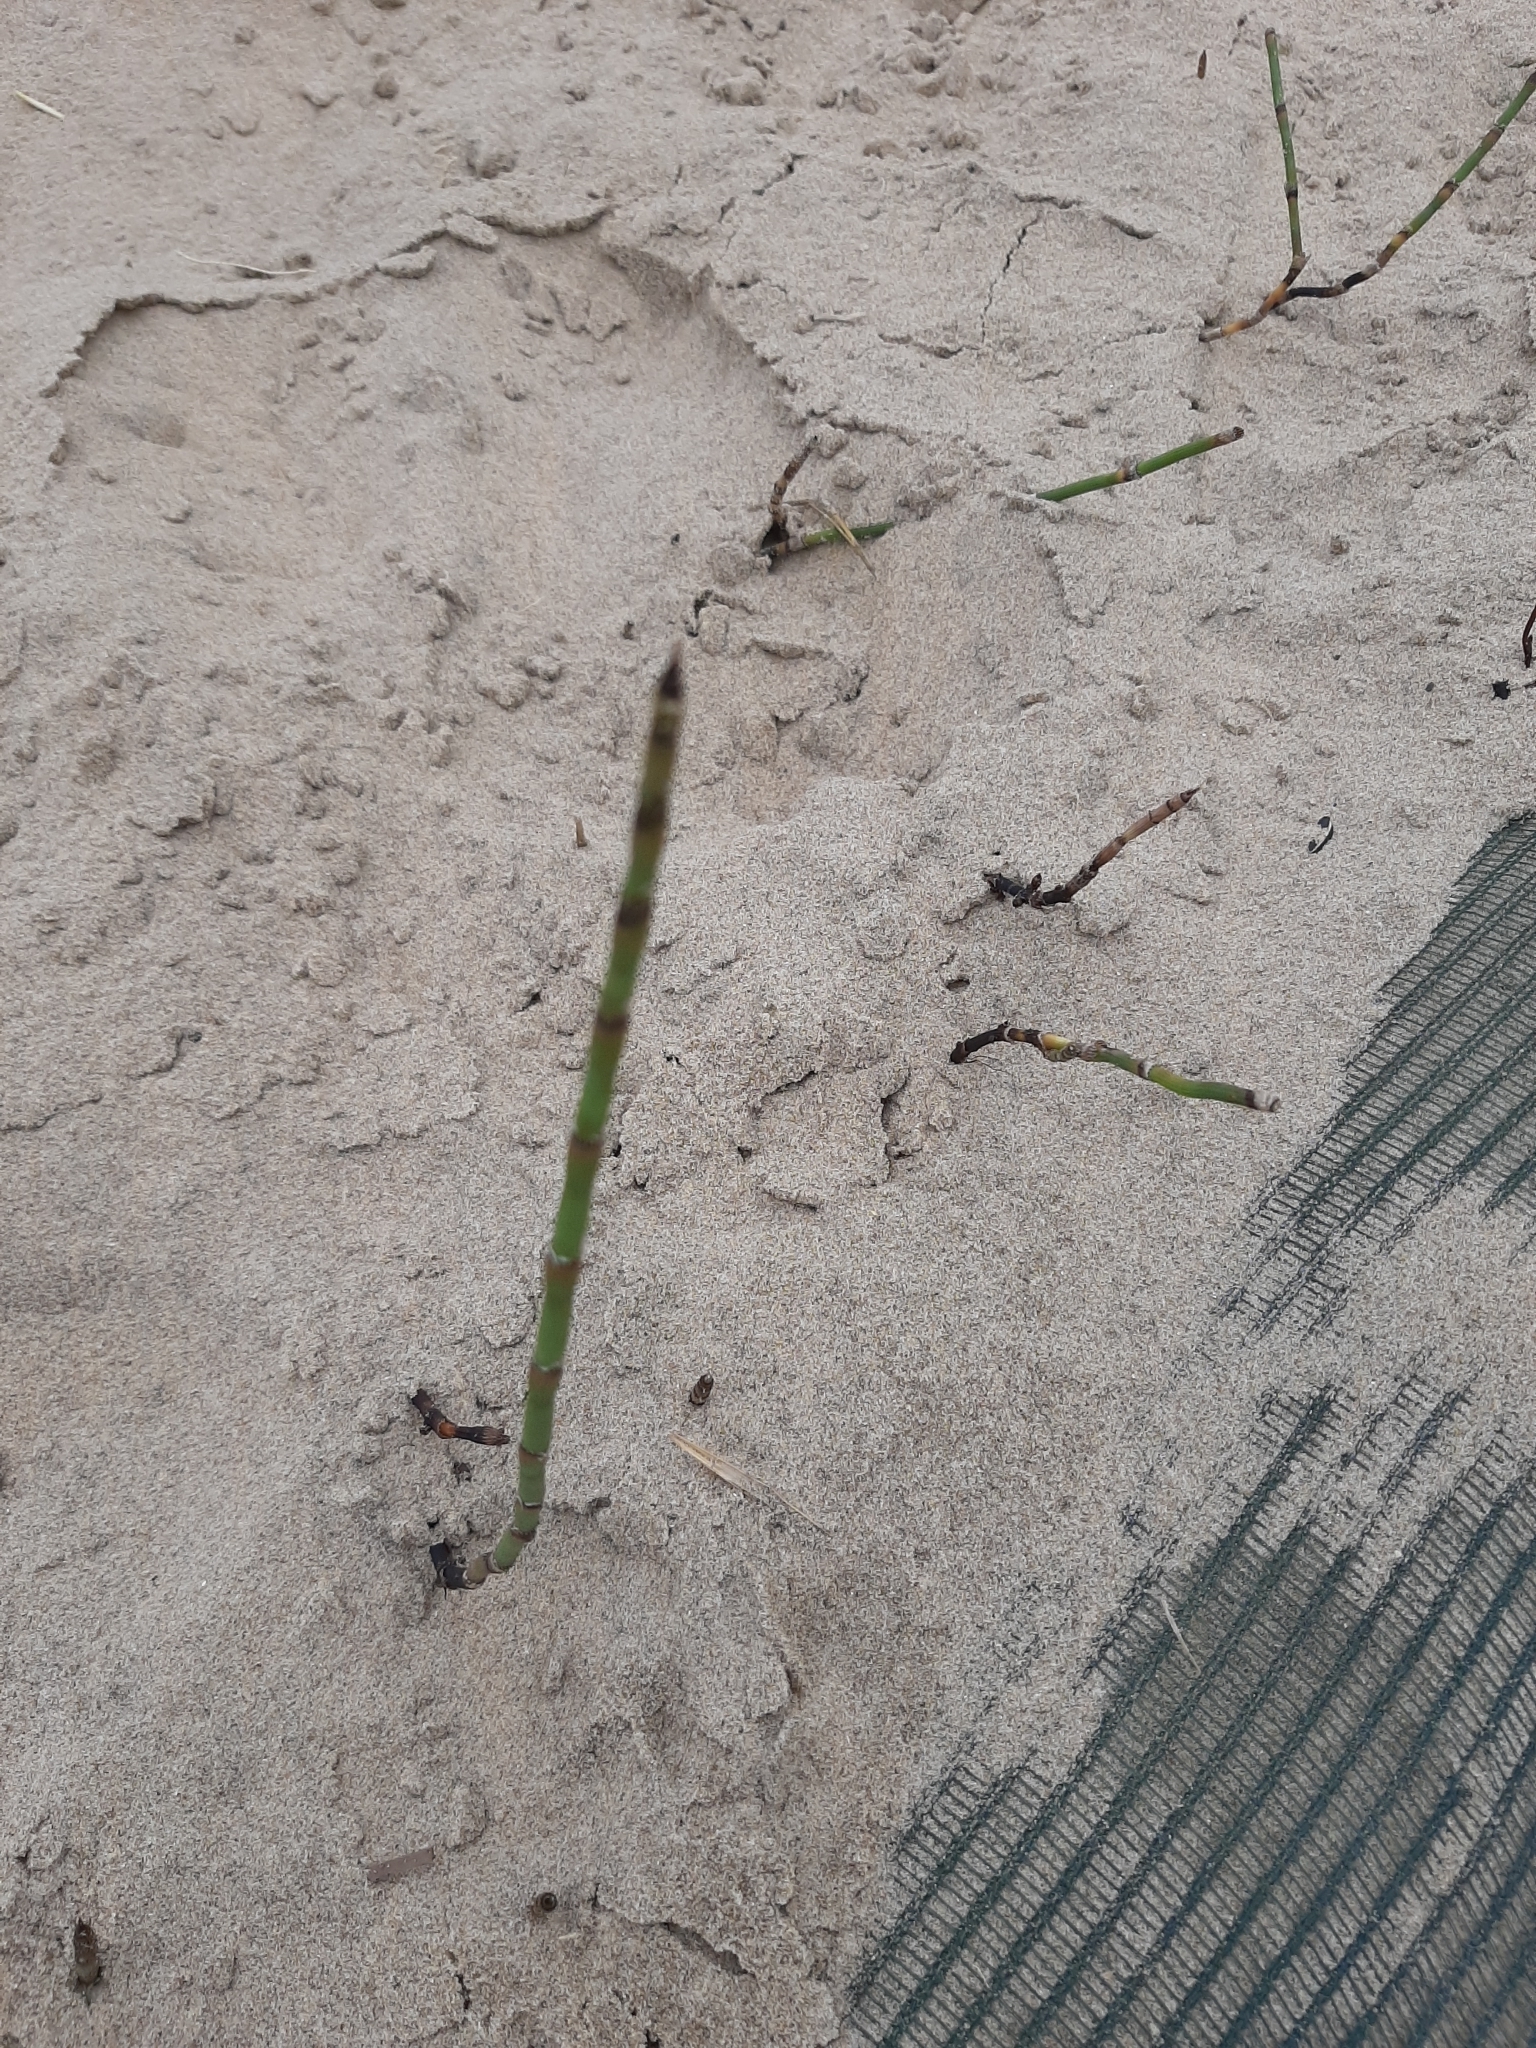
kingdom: Plantae
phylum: Tracheophyta
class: Polypodiopsida
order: Equisetales
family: Equisetaceae
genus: Equisetum
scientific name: Equisetum fluviatile
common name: Water horsetail
